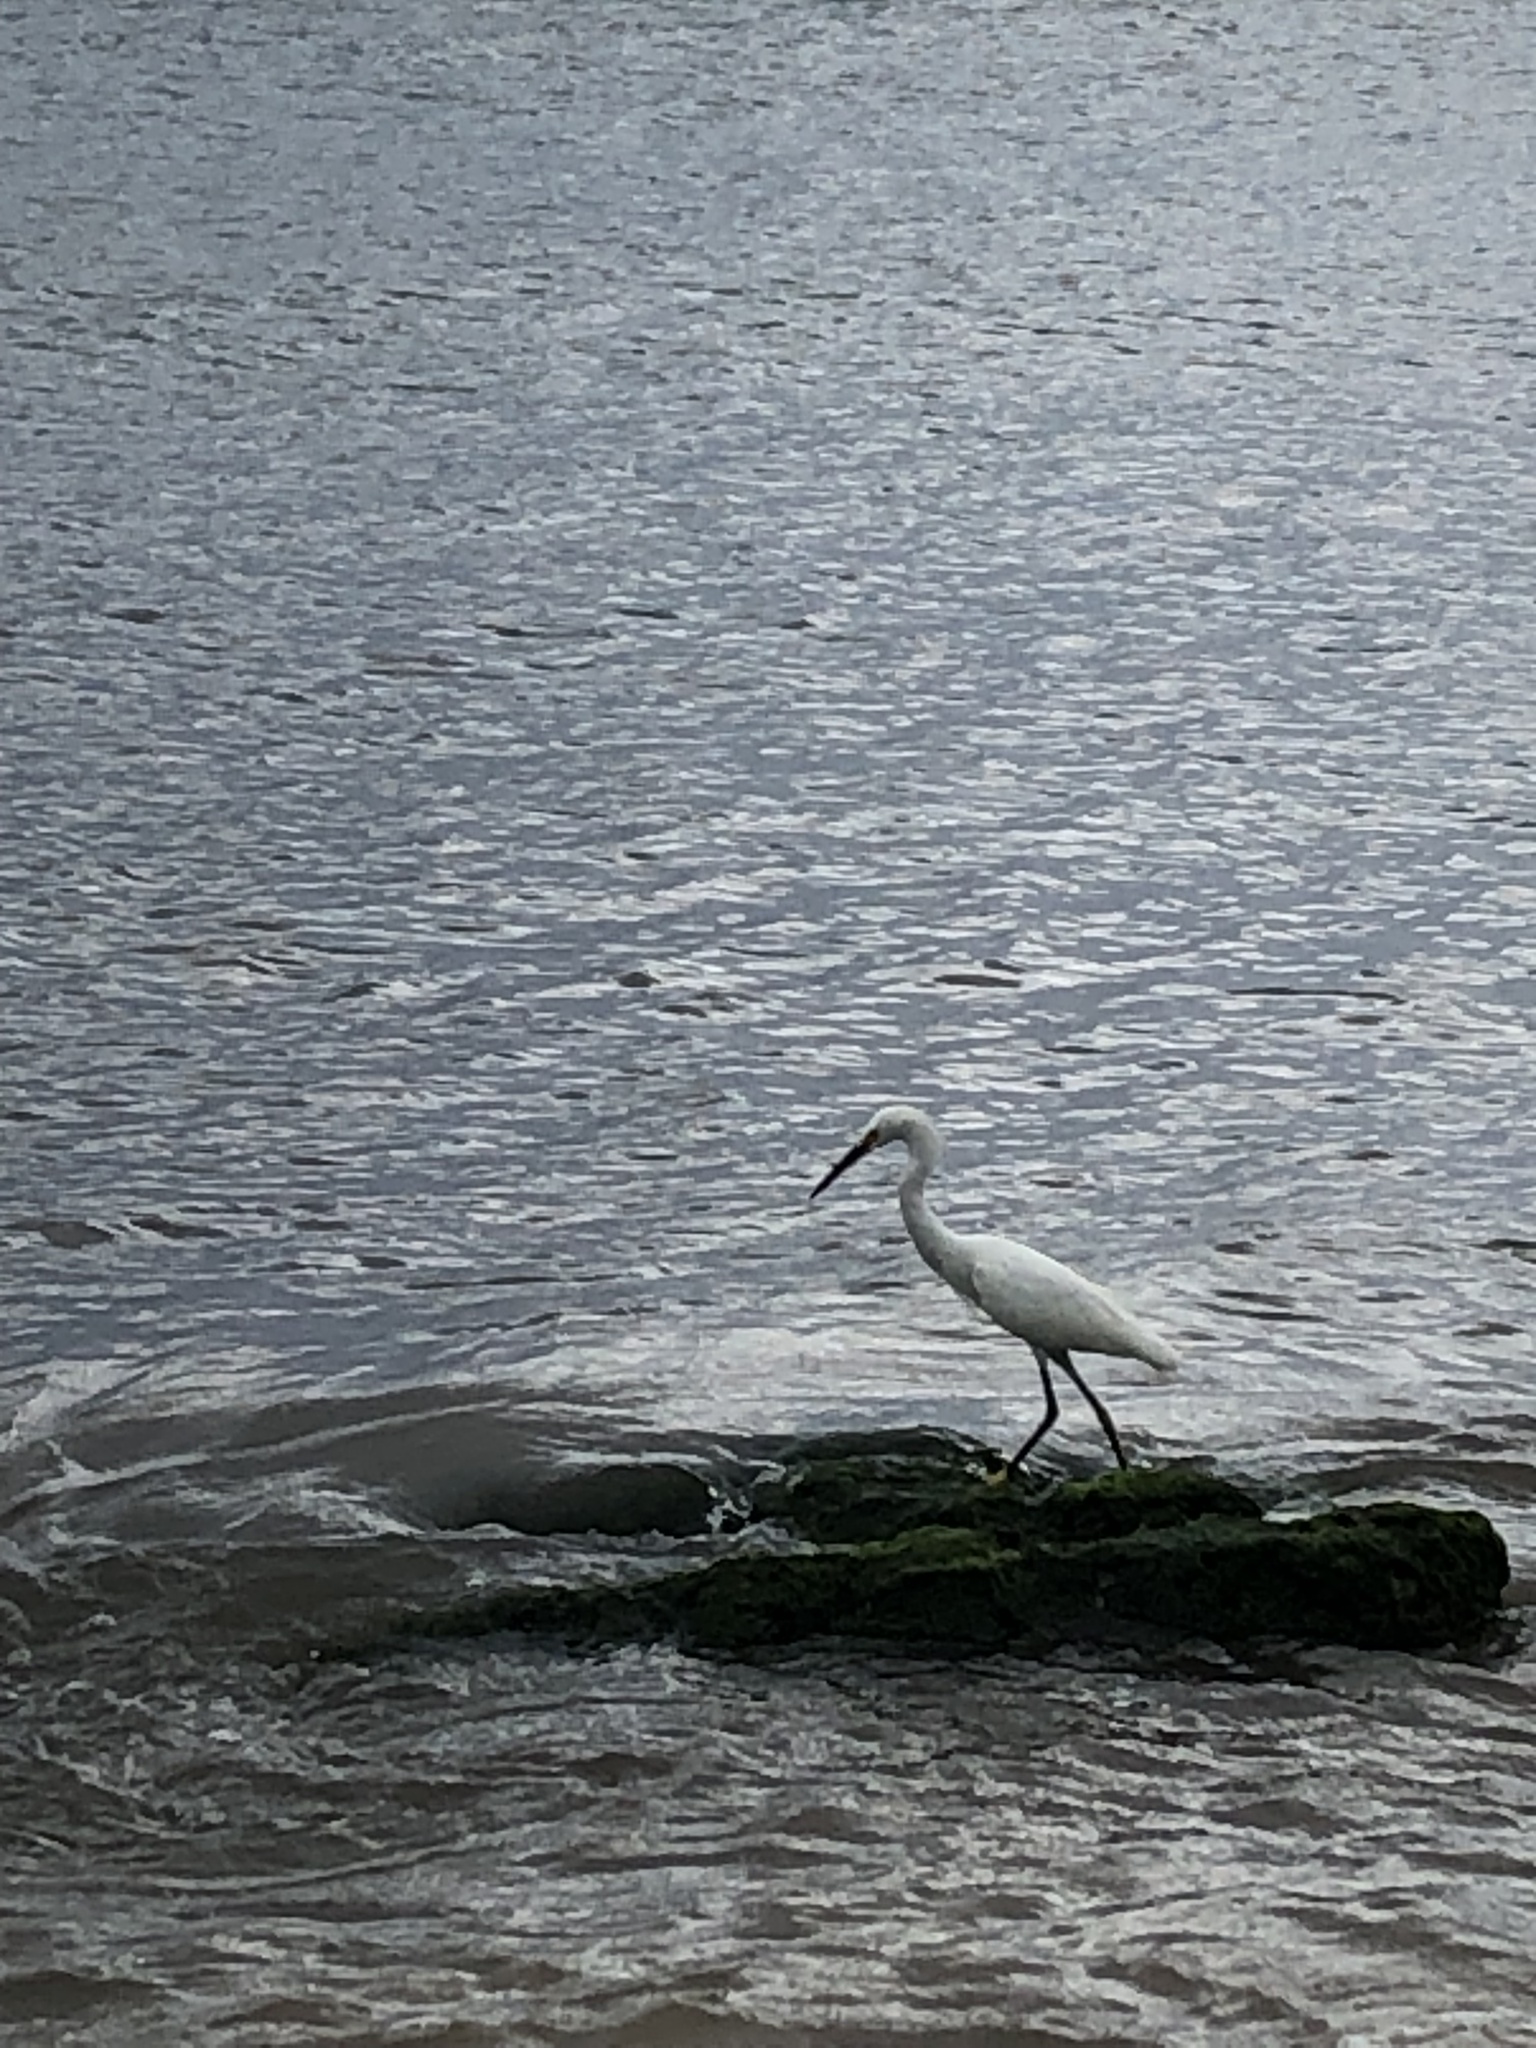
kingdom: Animalia
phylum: Chordata
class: Aves
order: Pelecaniformes
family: Ardeidae
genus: Egretta
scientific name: Egretta thula
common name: Snowy egret
